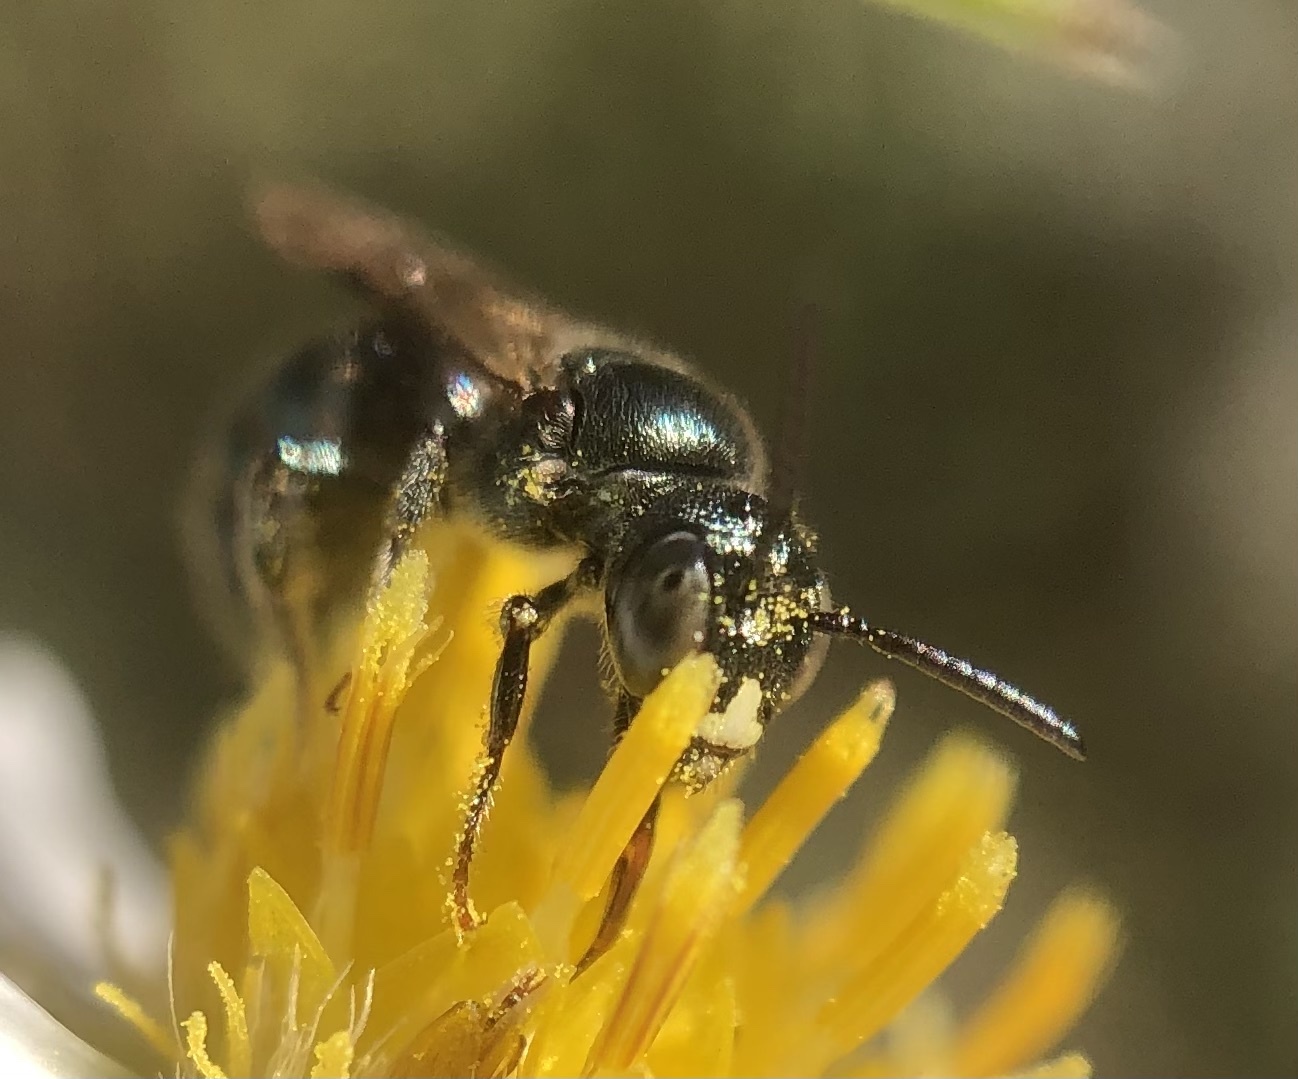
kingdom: Animalia
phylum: Arthropoda
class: Insecta
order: Hymenoptera
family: Apidae
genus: Zadontomerus
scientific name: Zadontomerus
